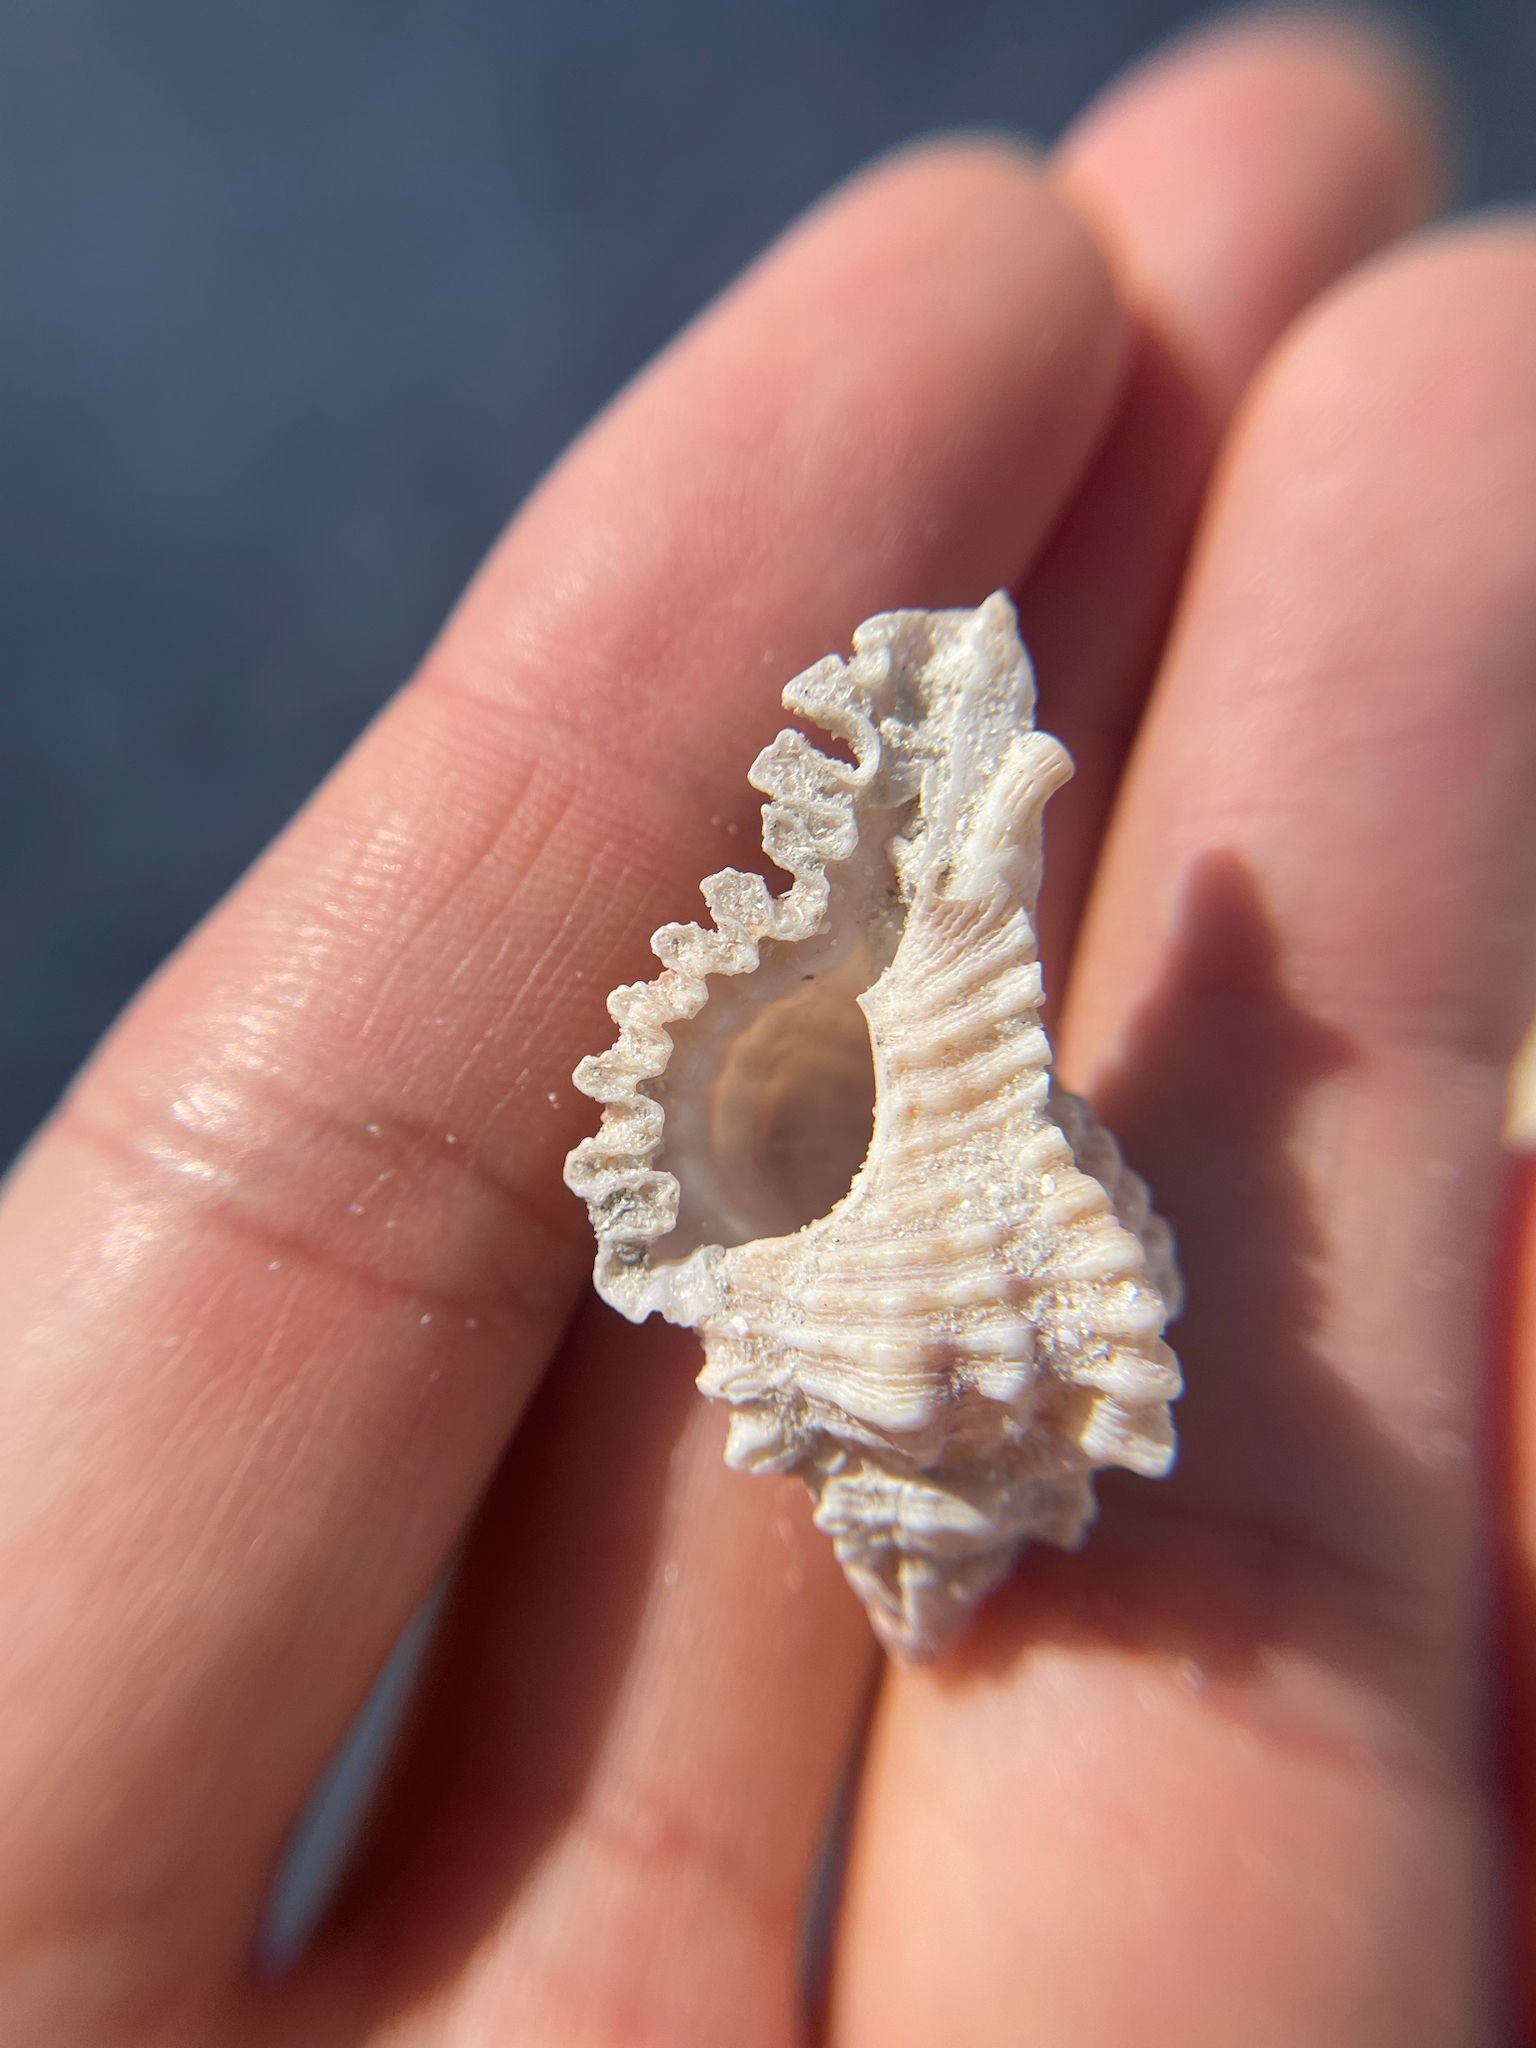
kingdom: Animalia
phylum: Mollusca
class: Gastropoda
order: Neogastropoda
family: Muricidae
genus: Chicoreus
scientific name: Chicoreus florifer
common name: Flowery lace murex
